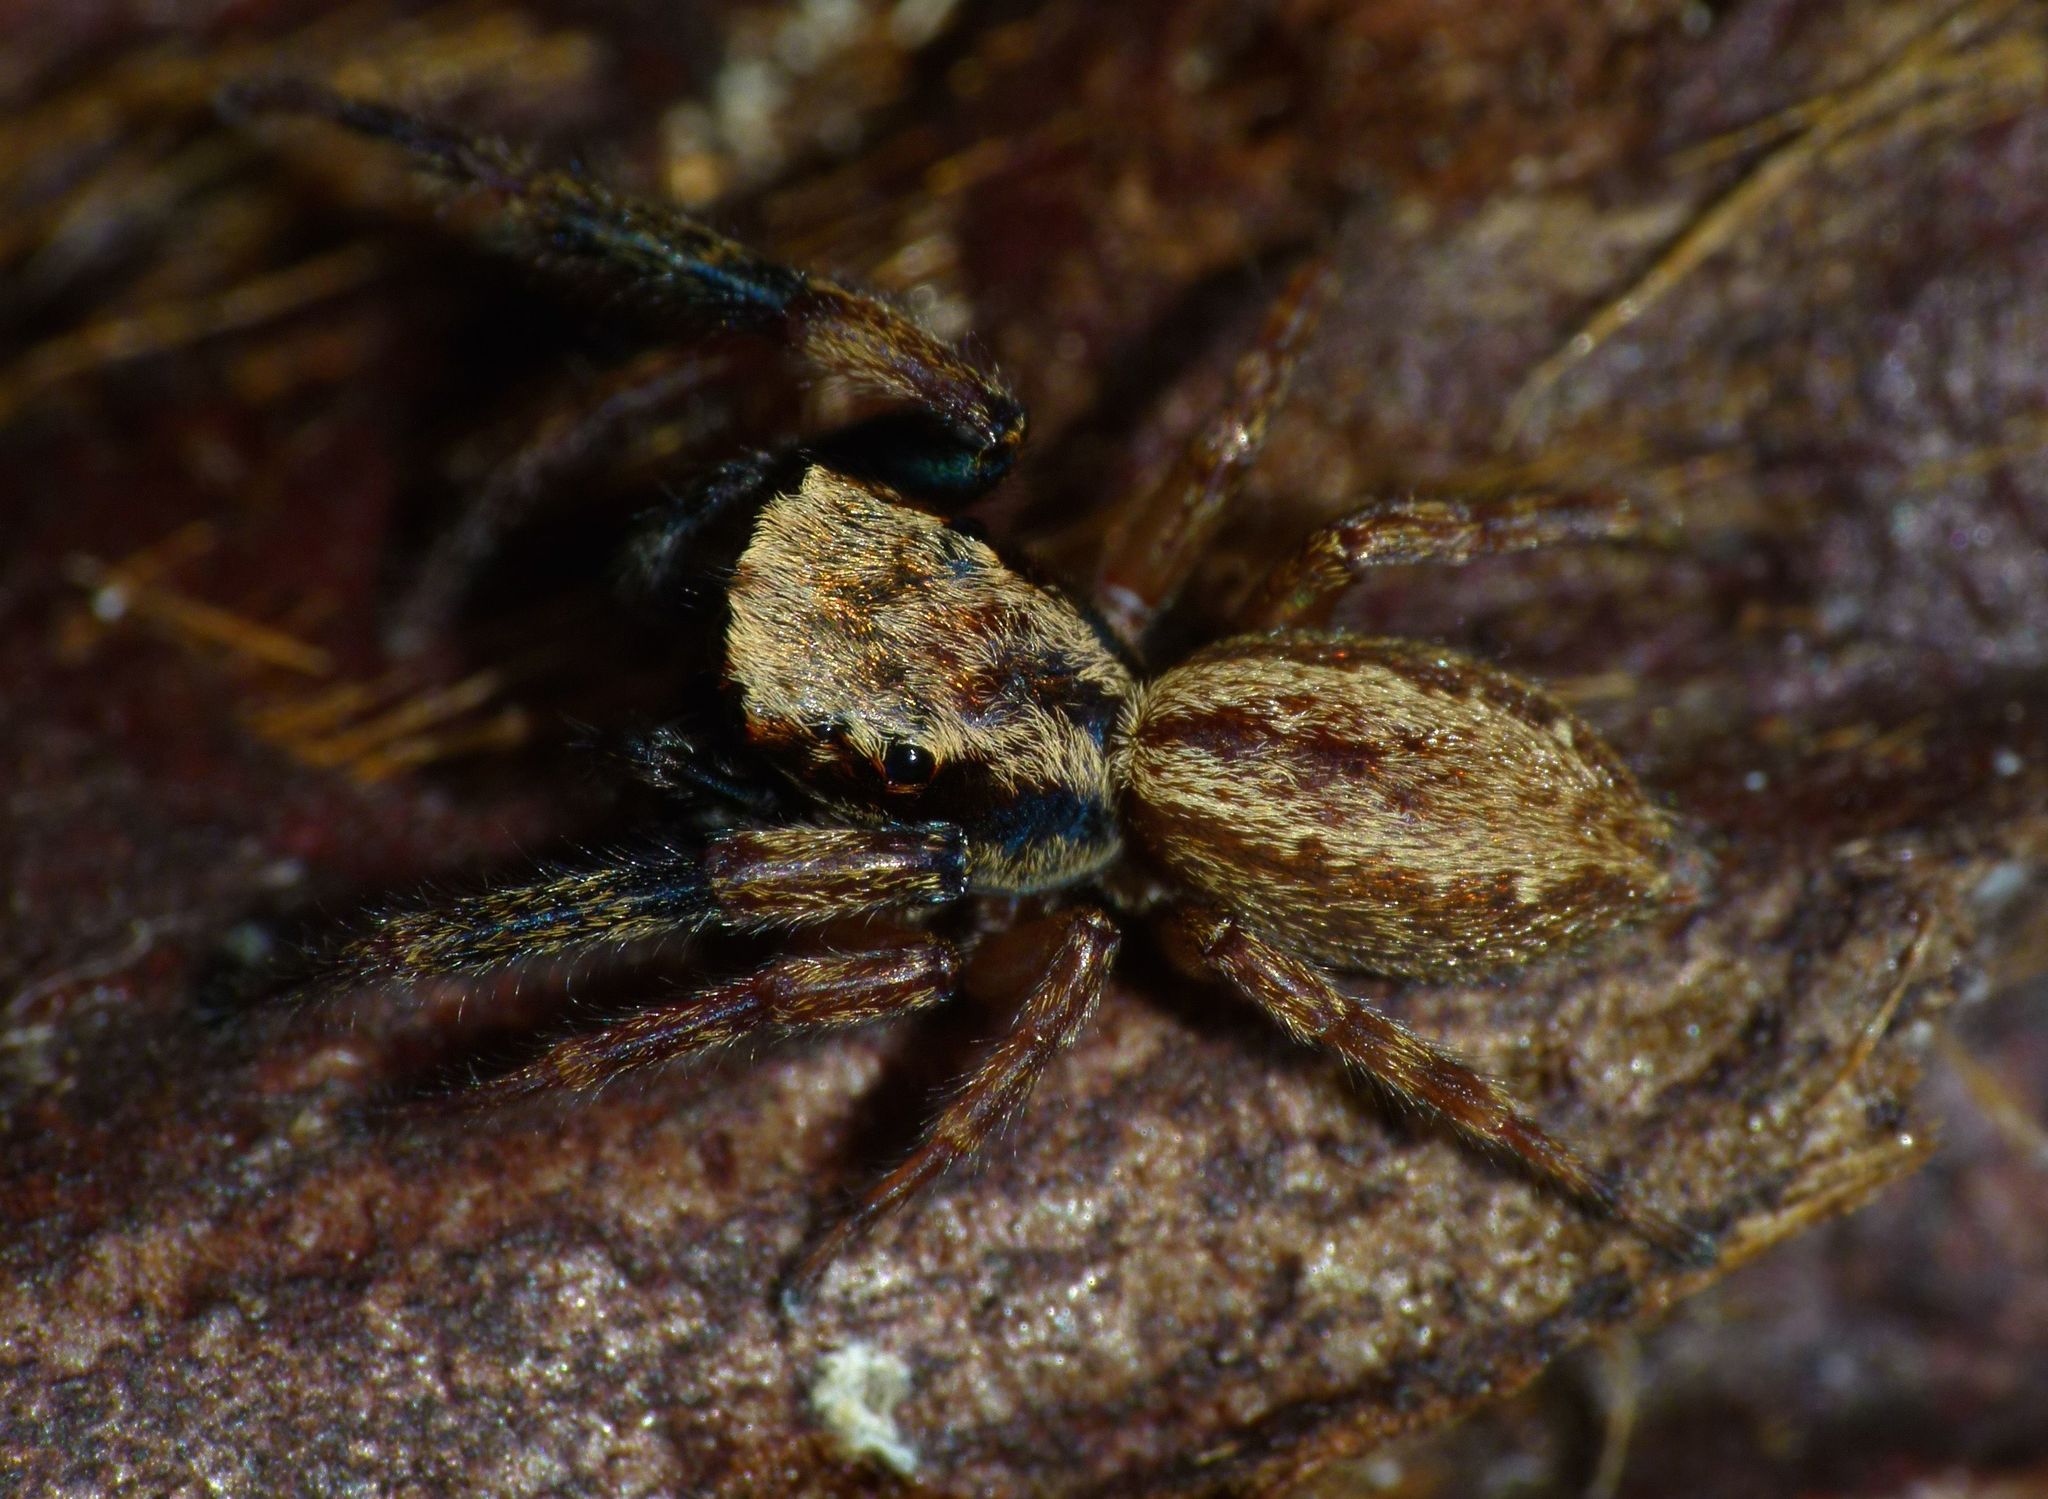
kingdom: Animalia
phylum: Arthropoda
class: Arachnida
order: Araneae
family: Salticidae
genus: Trite
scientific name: Trite auricoma
